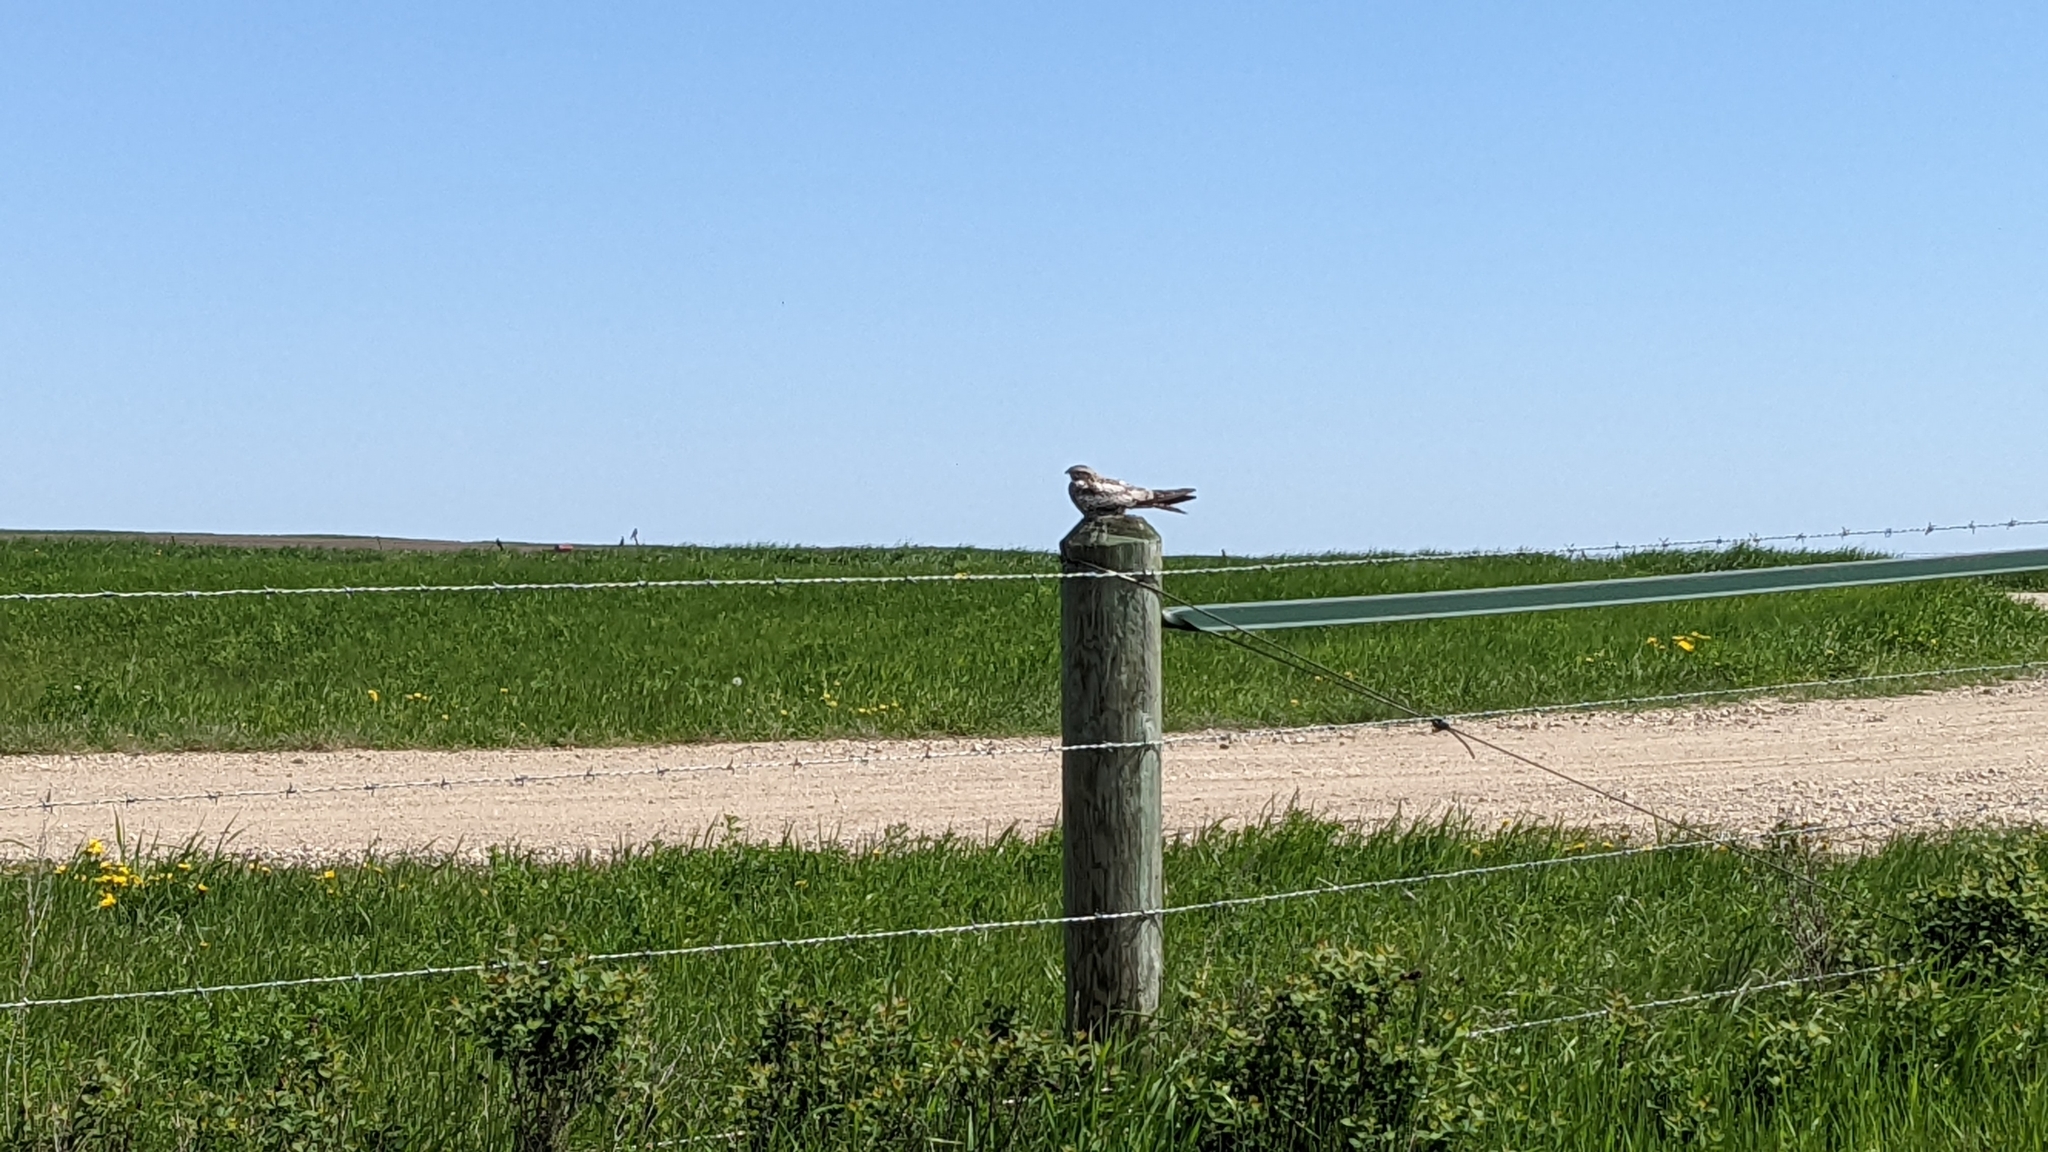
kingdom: Animalia
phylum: Chordata
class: Aves
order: Caprimulgiformes
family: Caprimulgidae
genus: Chordeiles
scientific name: Chordeiles minor
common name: Common nighthawk
